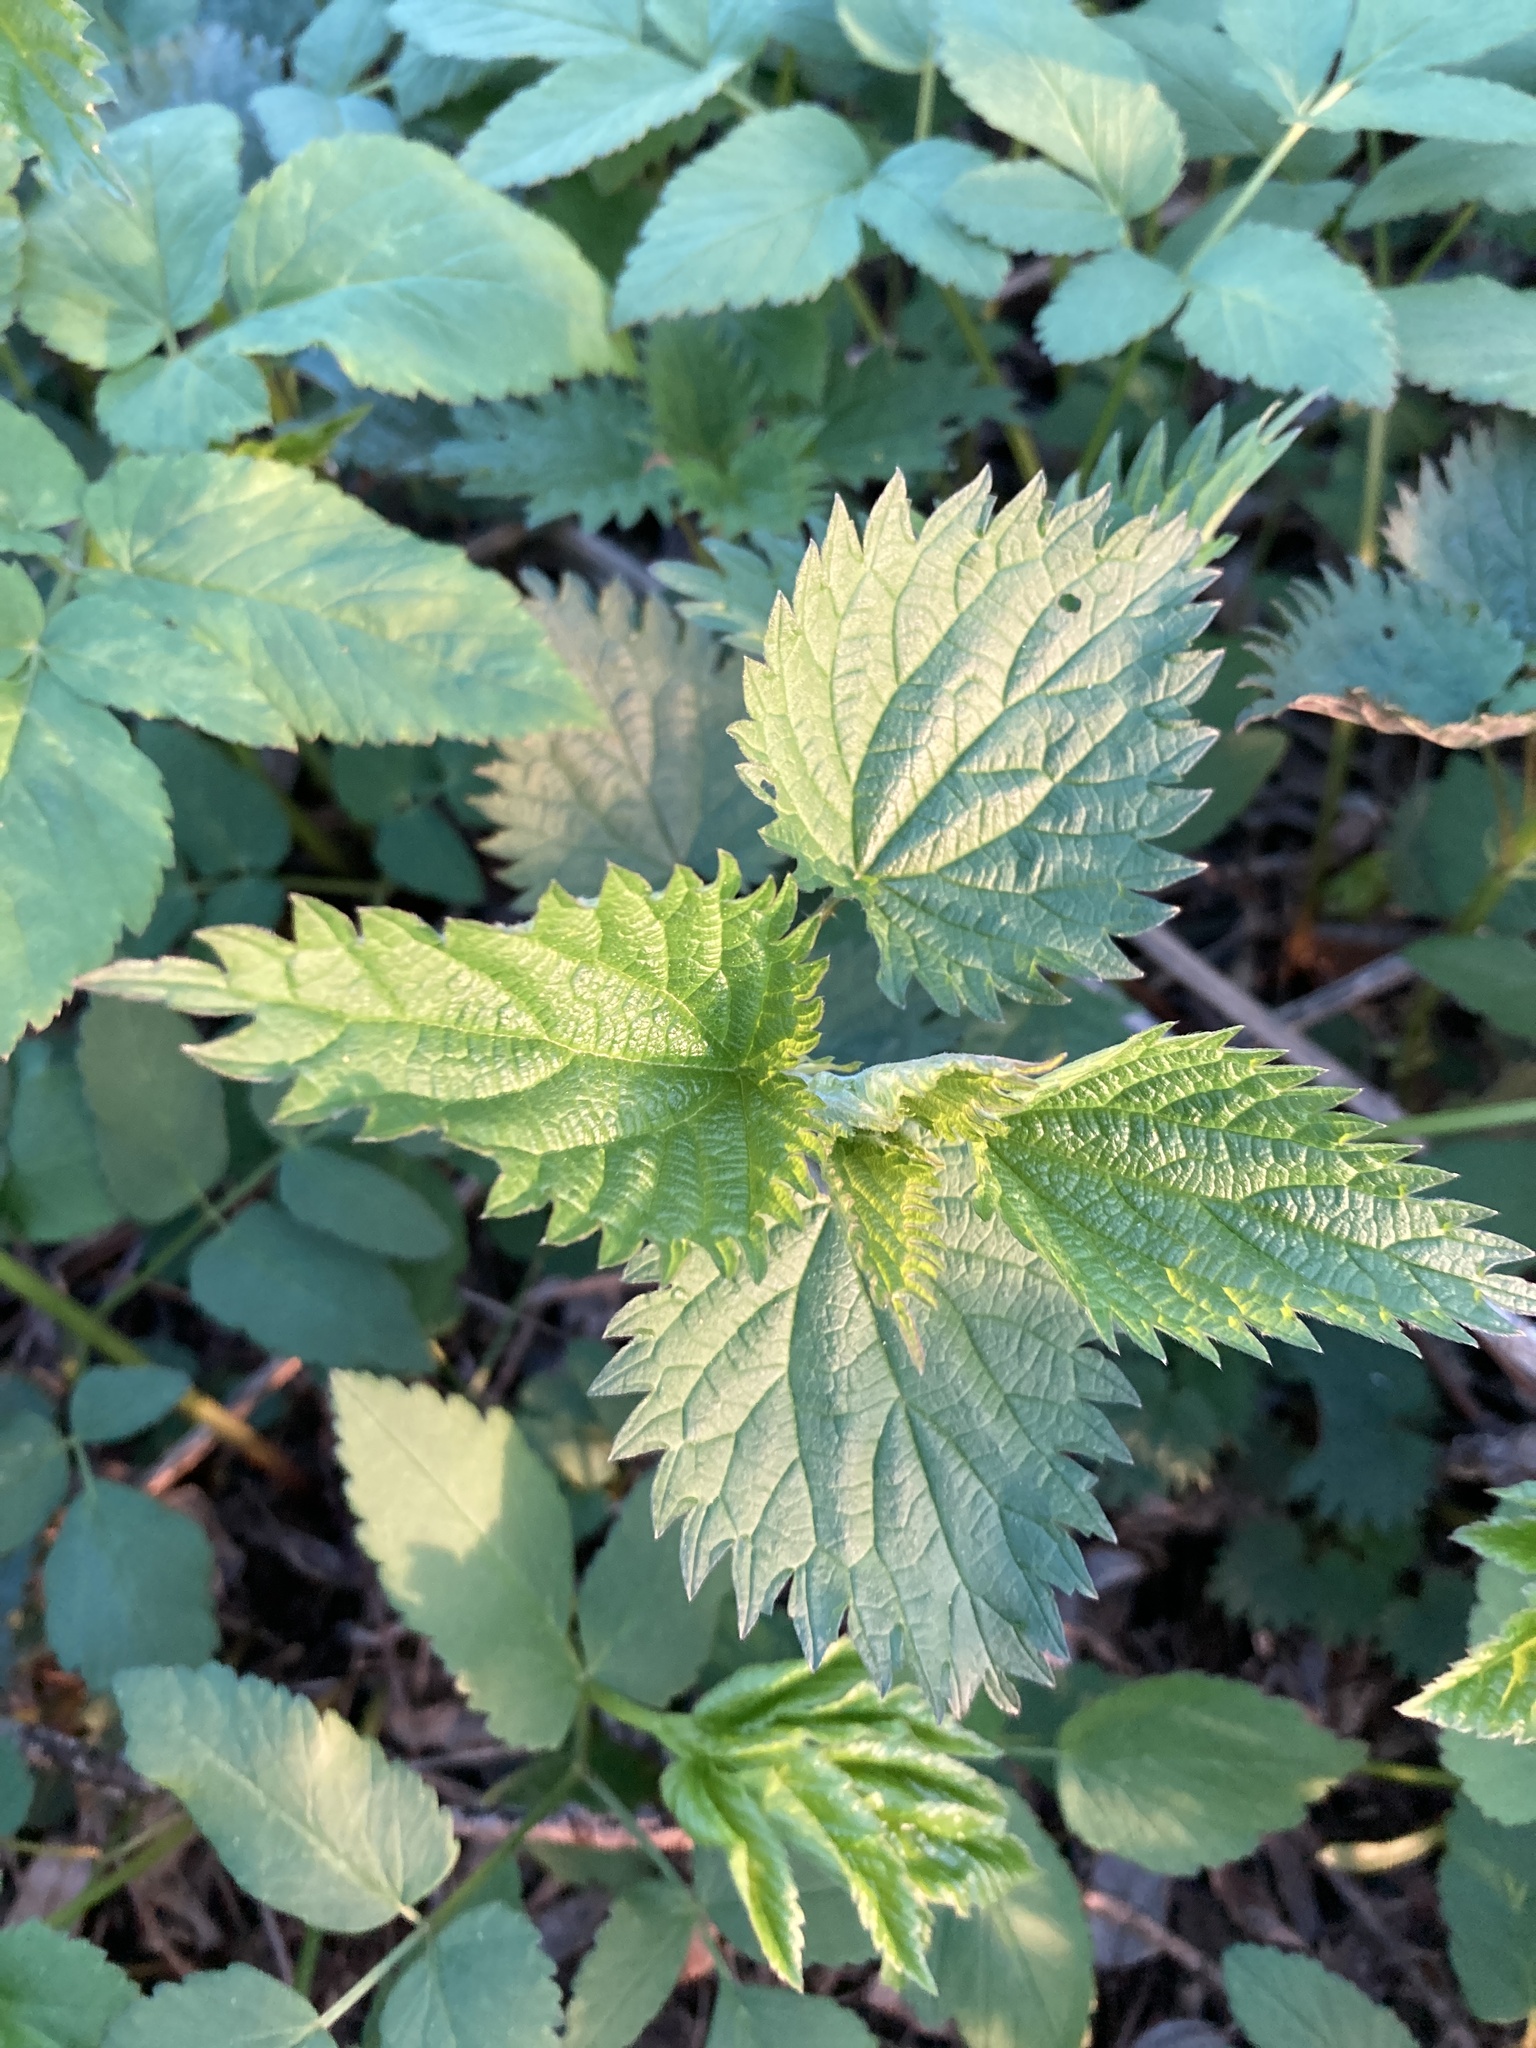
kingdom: Plantae
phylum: Tracheophyta
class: Magnoliopsida
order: Rosales
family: Urticaceae
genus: Urtica
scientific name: Urtica dioica
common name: Common nettle
